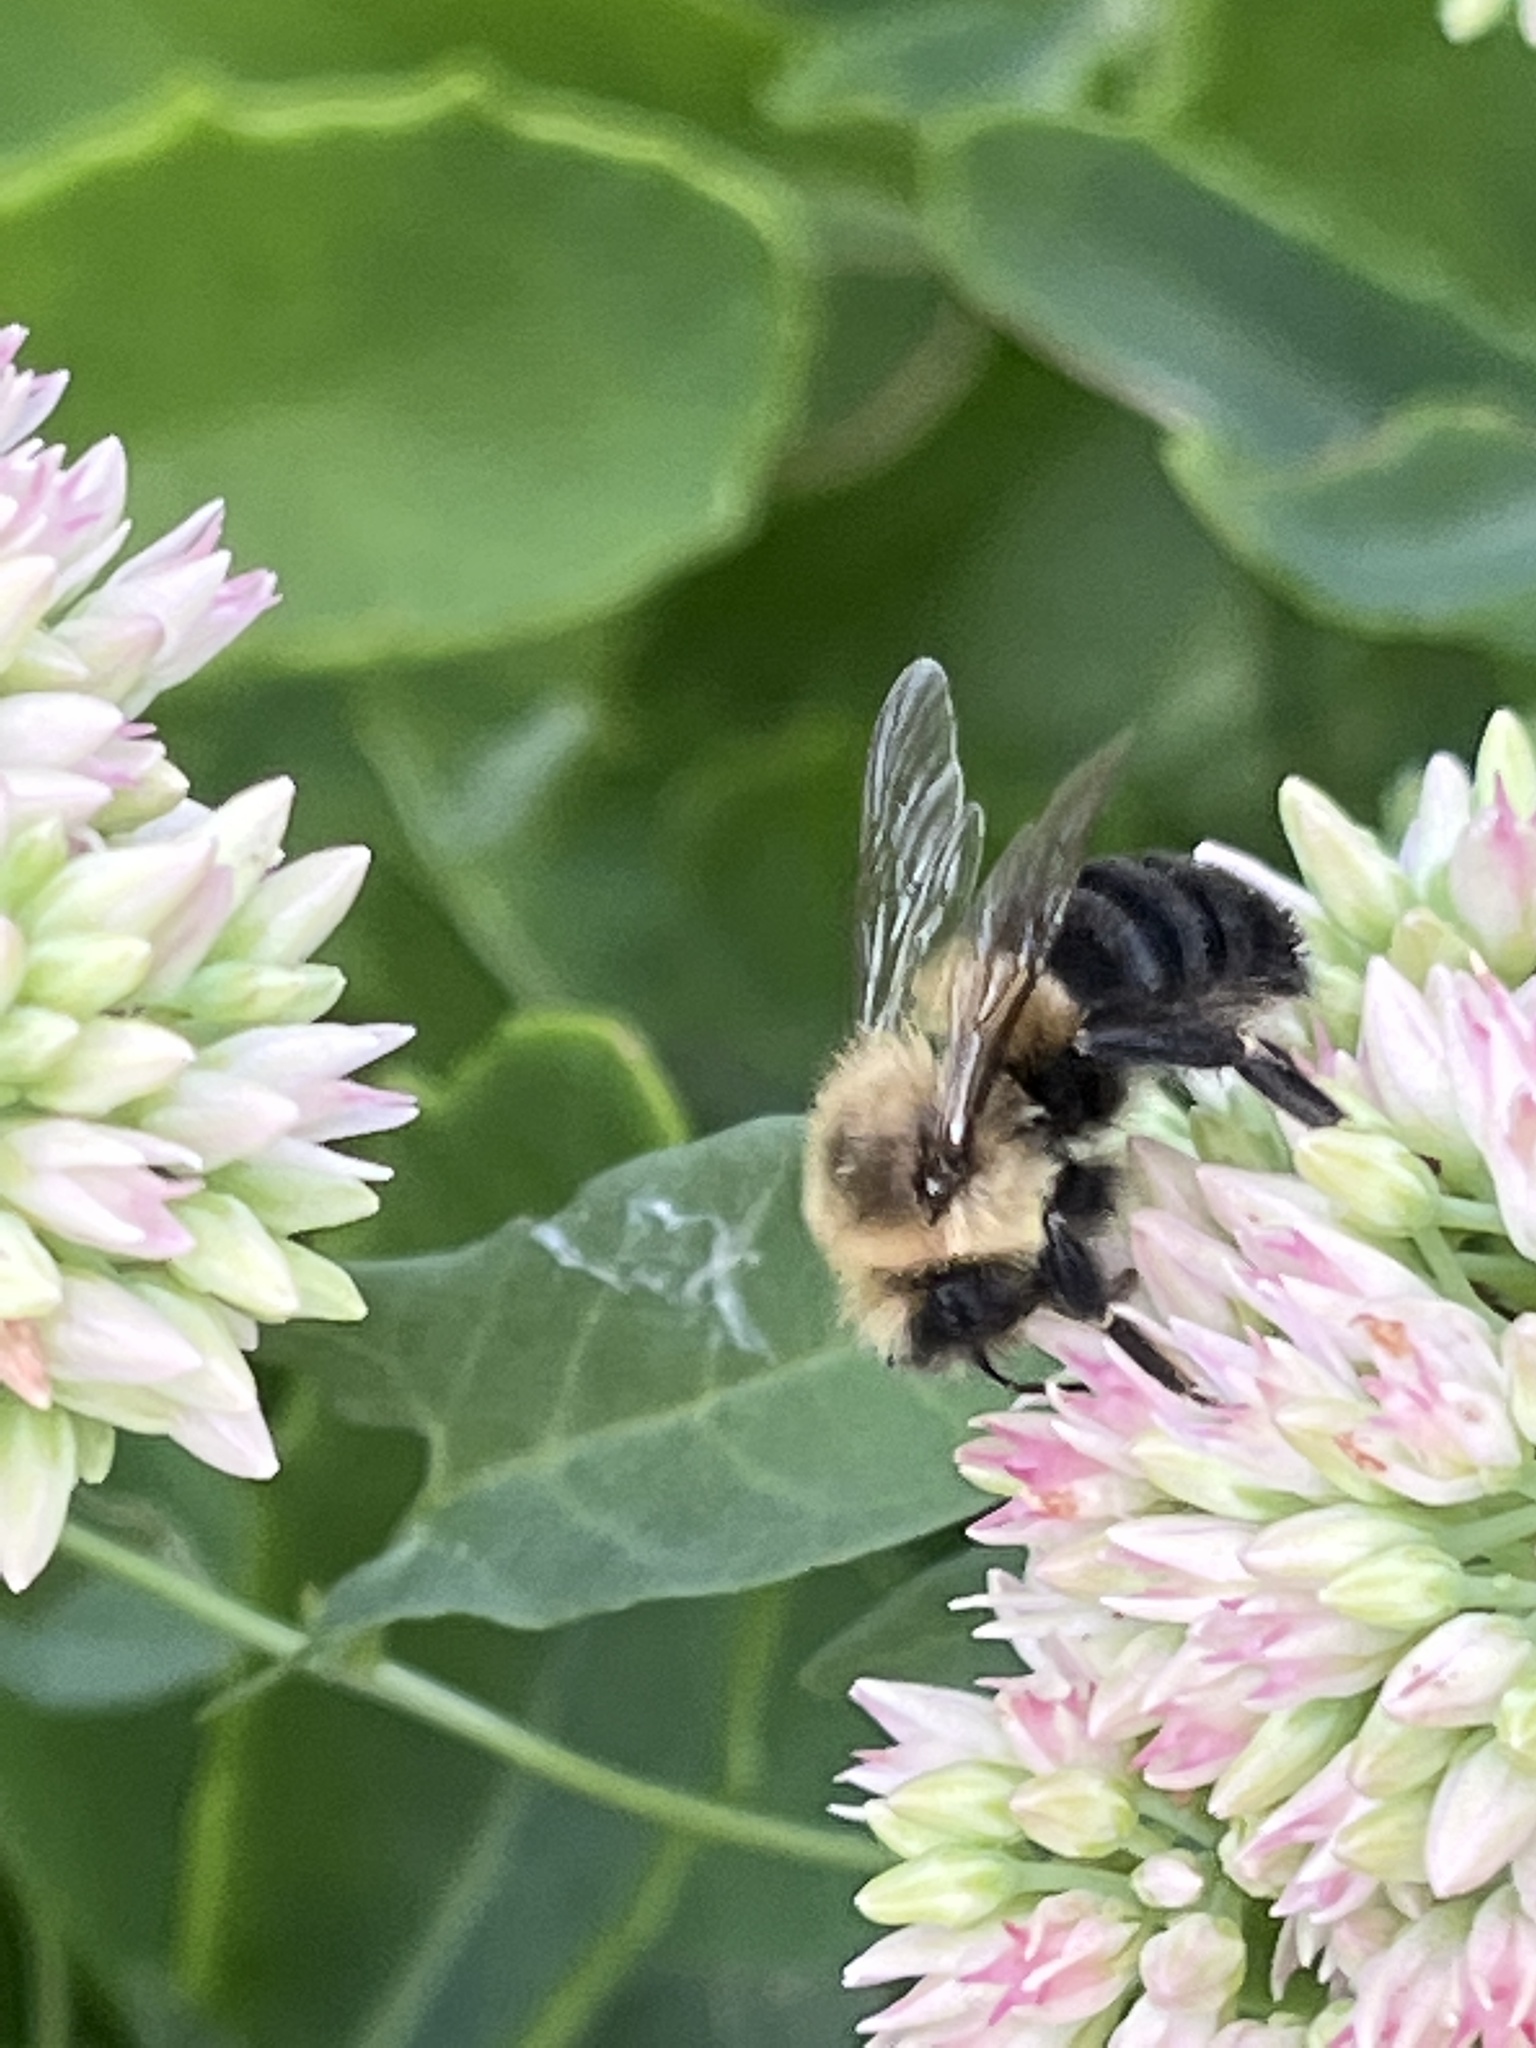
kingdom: Animalia
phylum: Arthropoda
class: Insecta
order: Hymenoptera
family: Apidae
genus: Bombus
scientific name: Bombus impatiens
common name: Common eastern bumble bee
